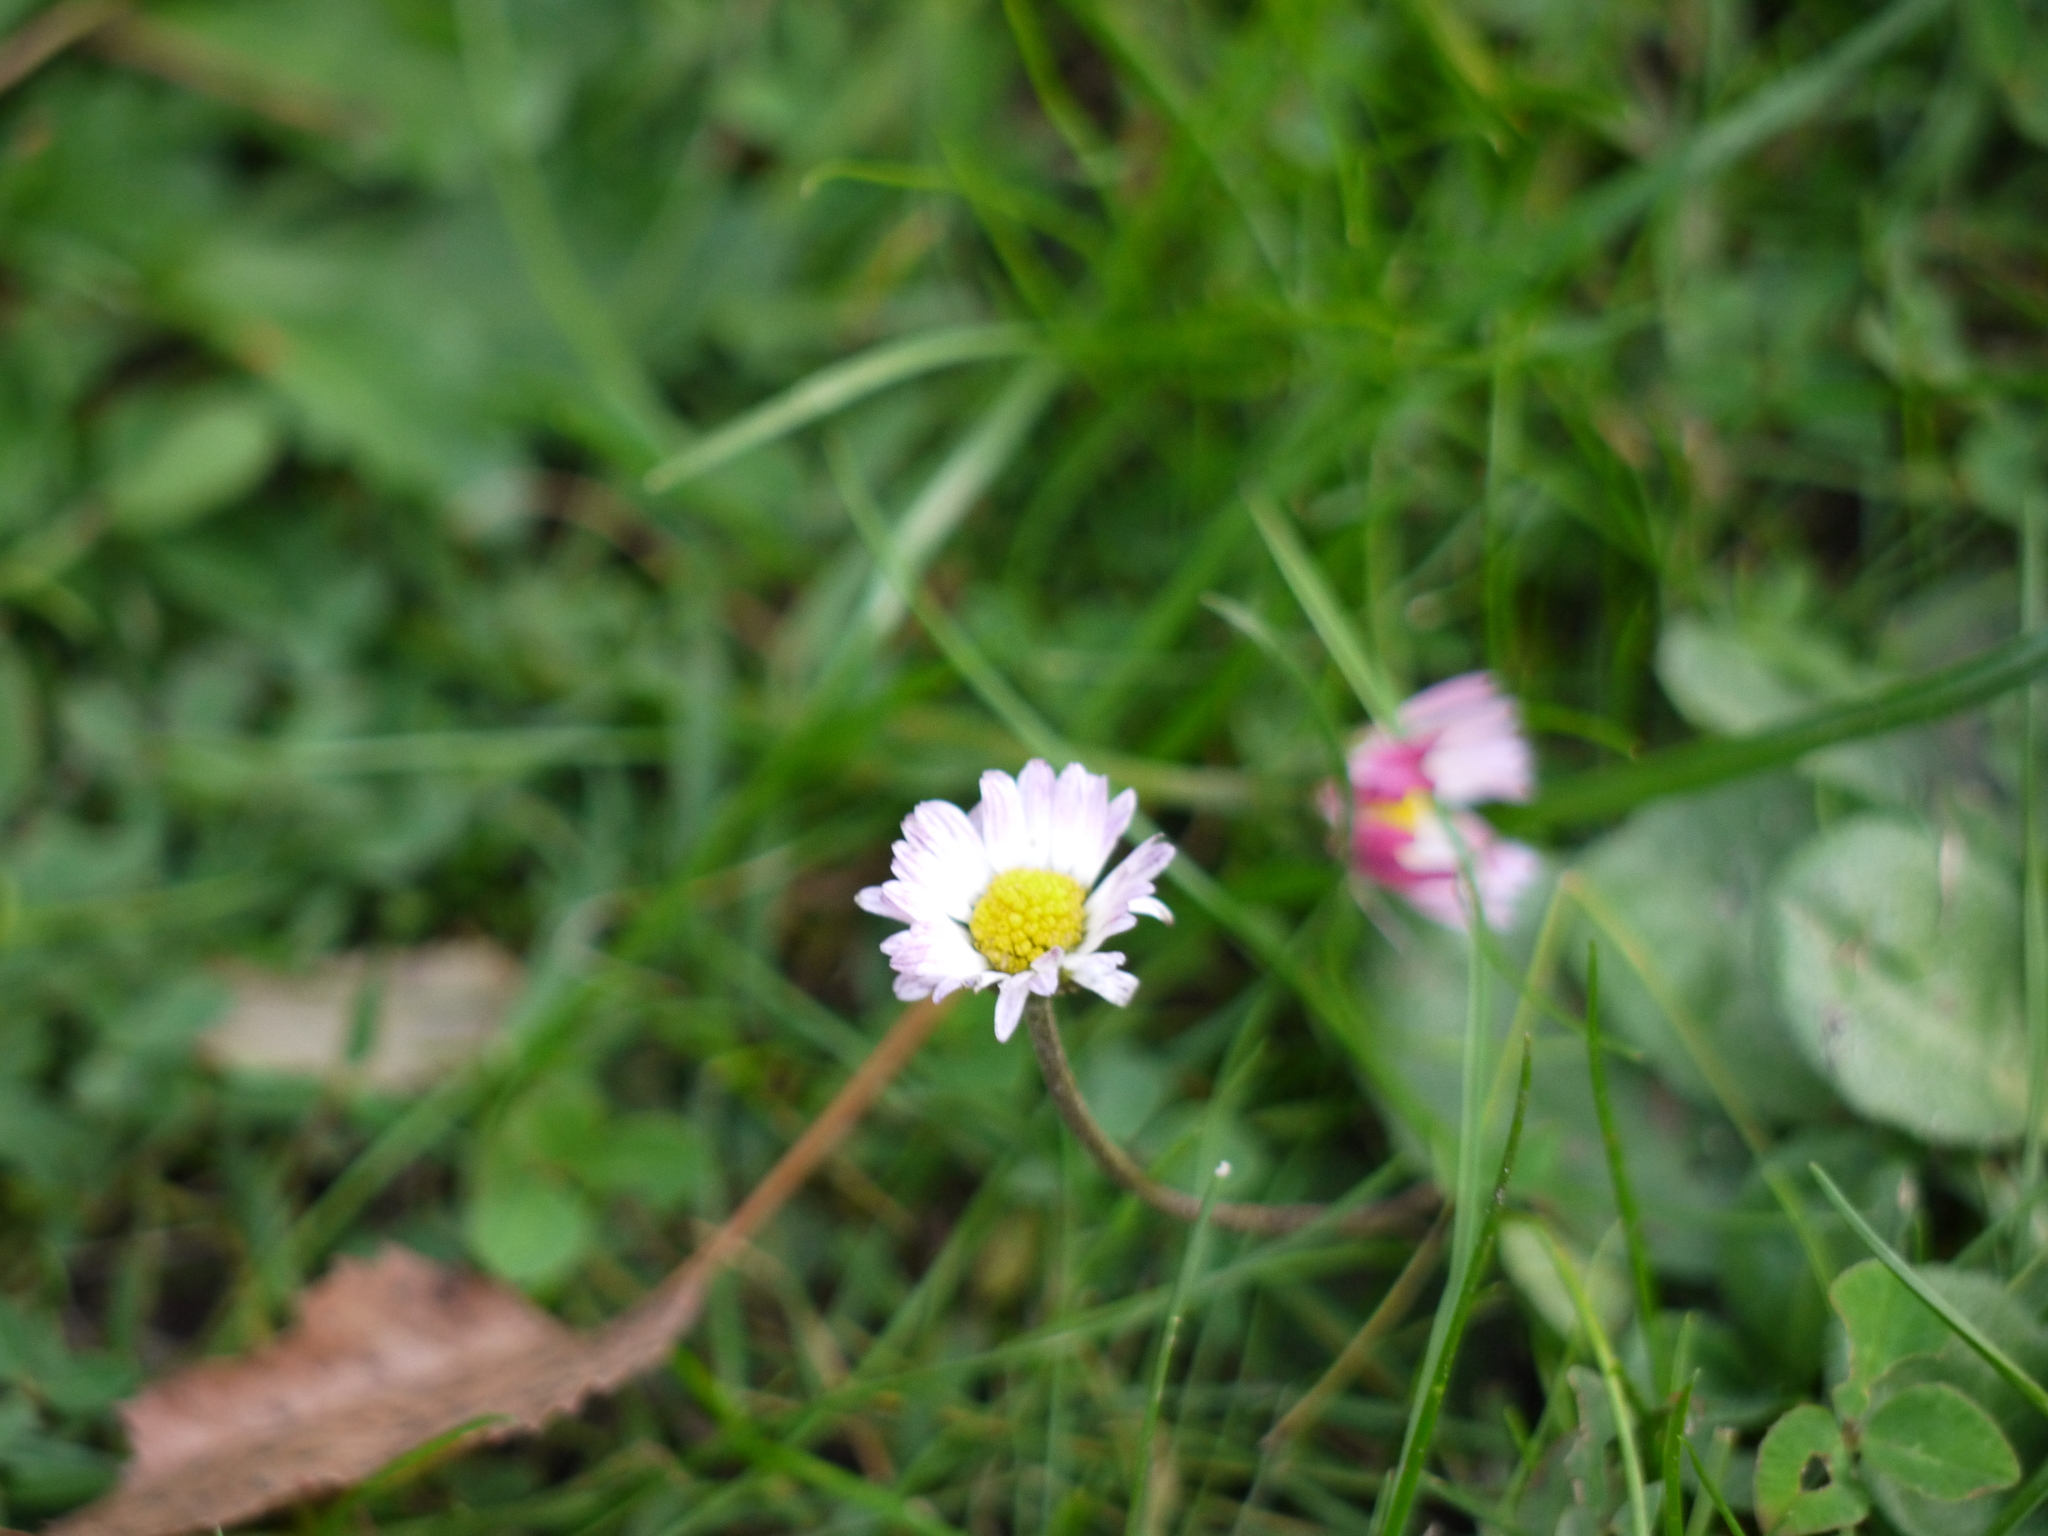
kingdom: Plantae
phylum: Tracheophyta
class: Magnoliopsida
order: Asterales
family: Asteraceae
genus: Bellis
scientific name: Bellis perennis
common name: Lawndaisy
